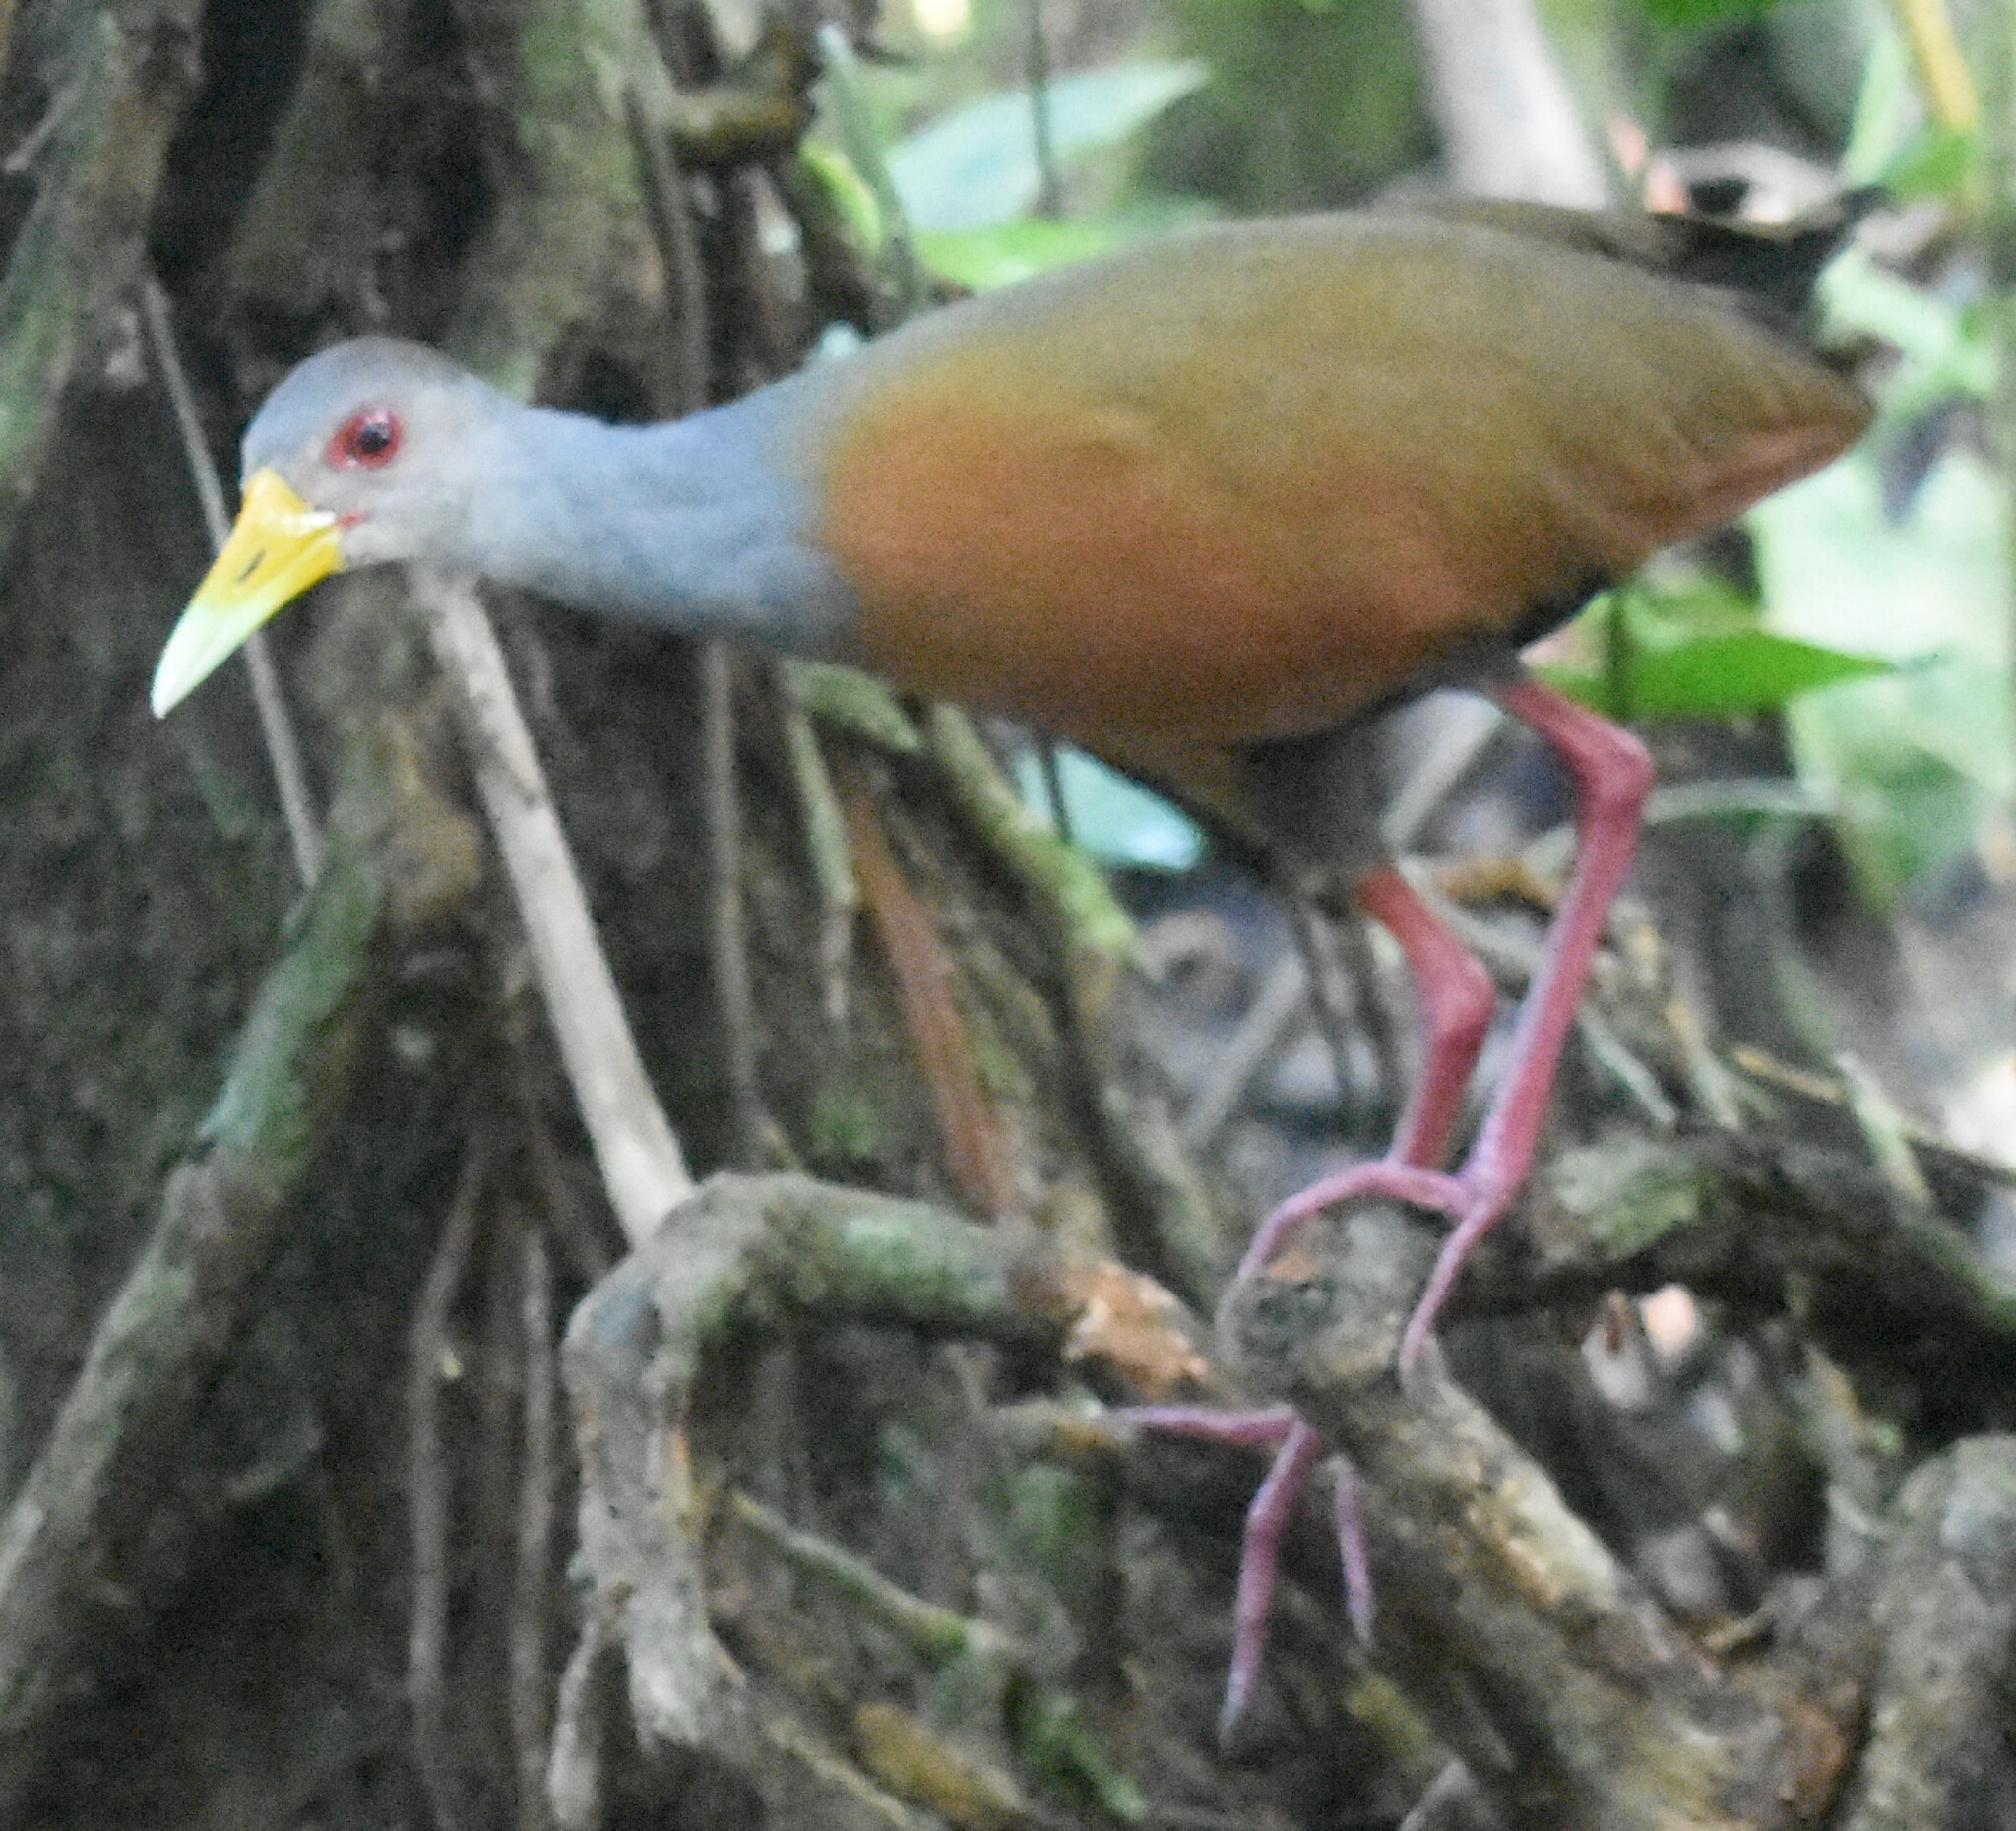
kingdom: Animalia
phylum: Chordata
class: Aves
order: Gruiformes
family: Rallidae
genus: Aramides
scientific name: Aramides cajanea
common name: Gray-necked wood-rail
